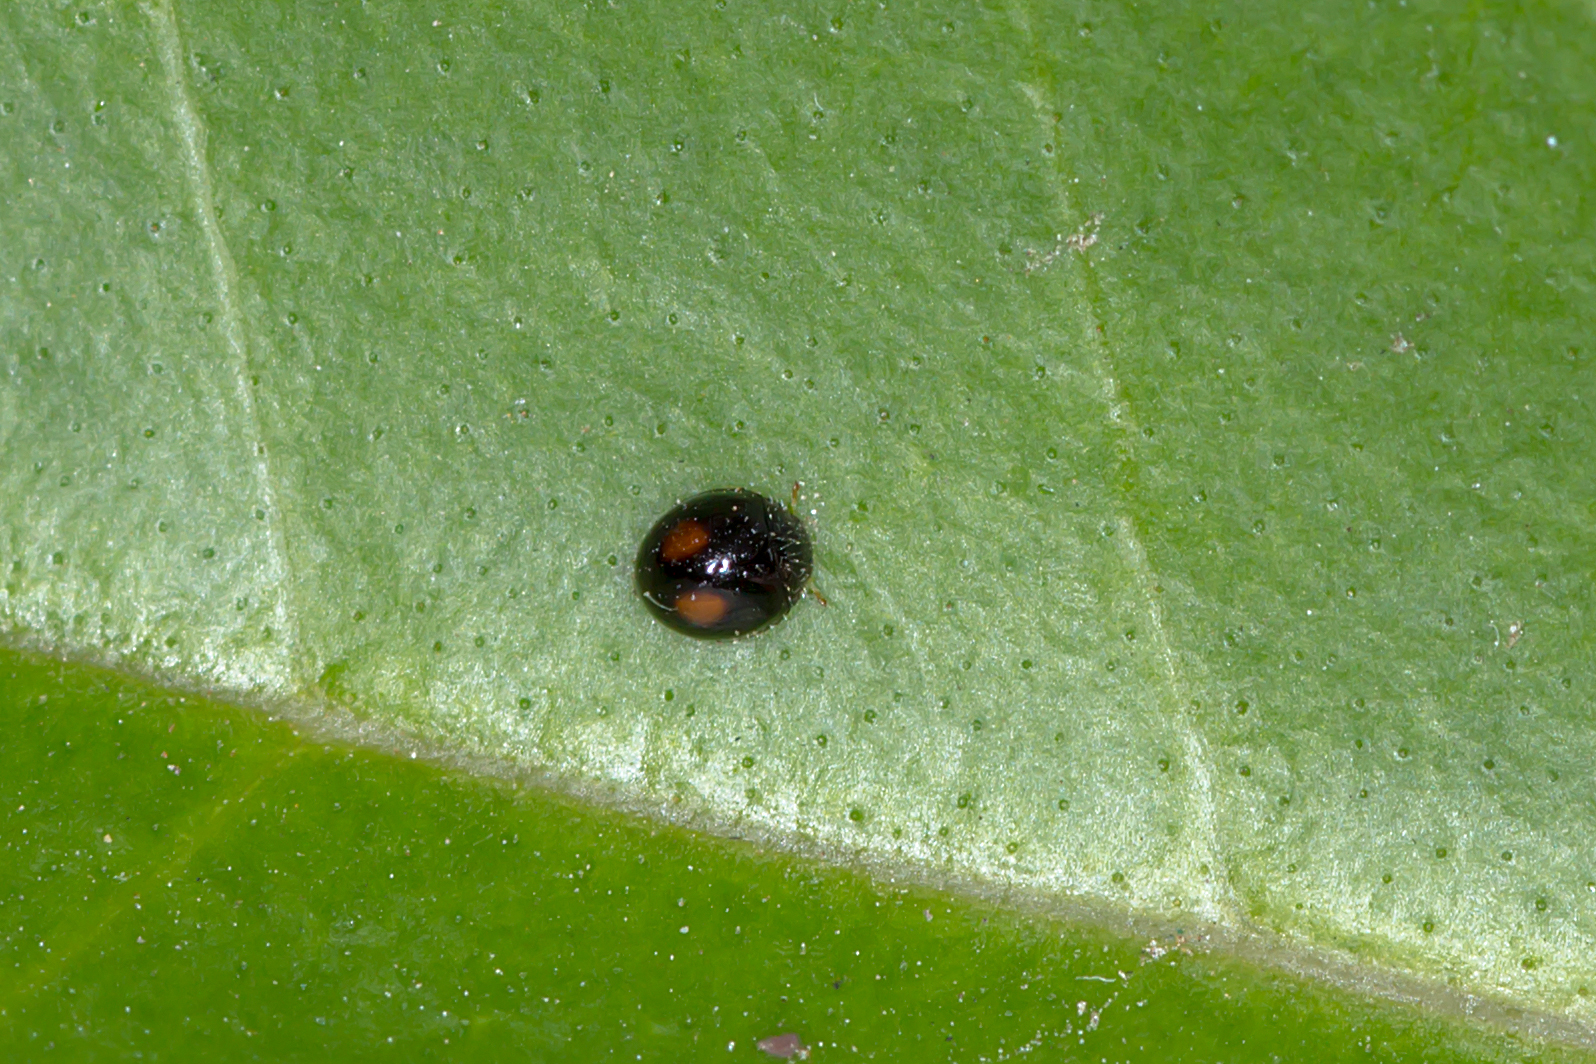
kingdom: Animalia
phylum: Arthropoda
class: Insecta
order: Coleoptera
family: Coccinellidae
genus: Serangium
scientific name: Serangium bellum
